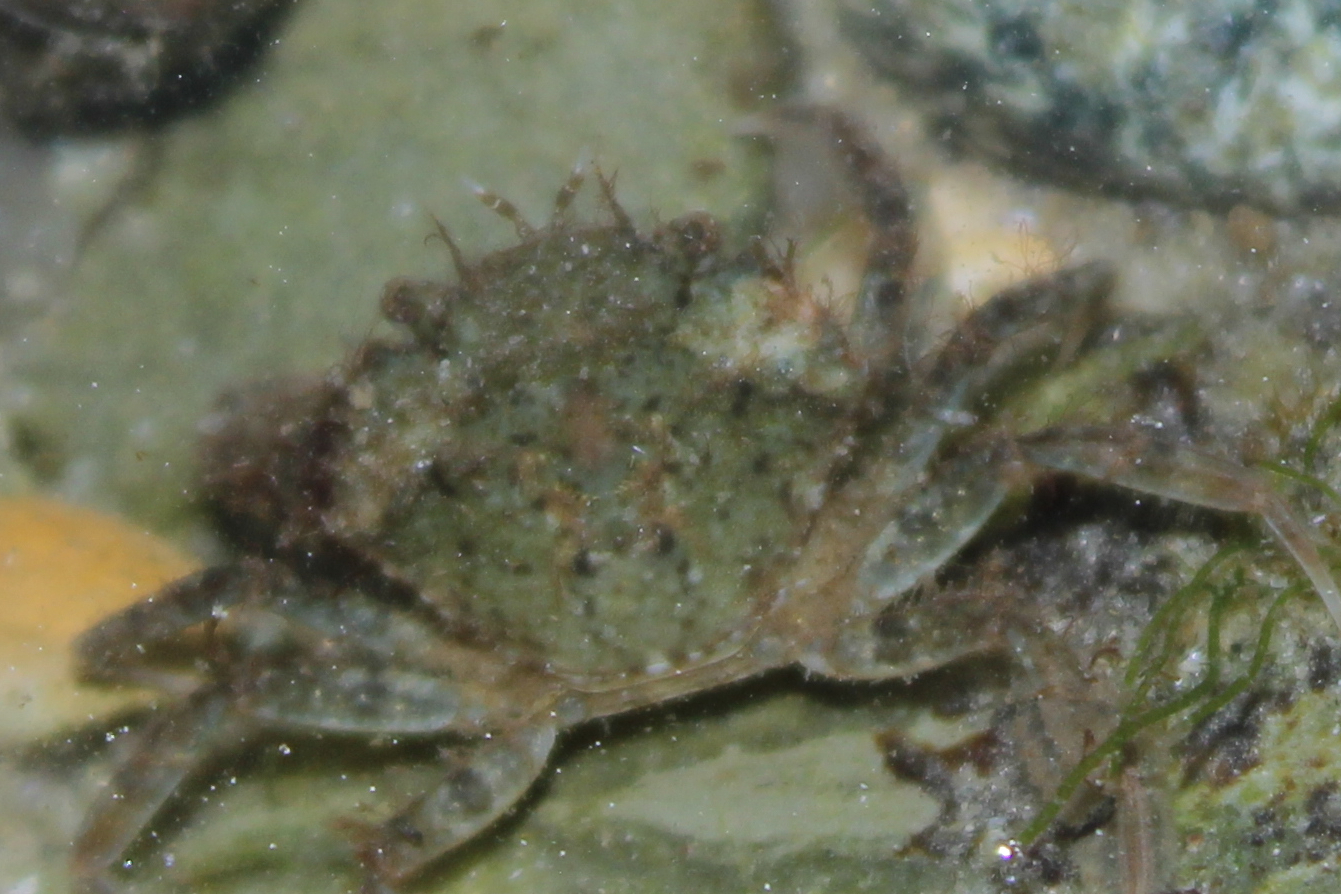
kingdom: Animalia
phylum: Arthropoda
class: Malacostraca
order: Decapoda
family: Carcinidae
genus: Carcinus
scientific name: Carcinus maenas
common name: European green crab
